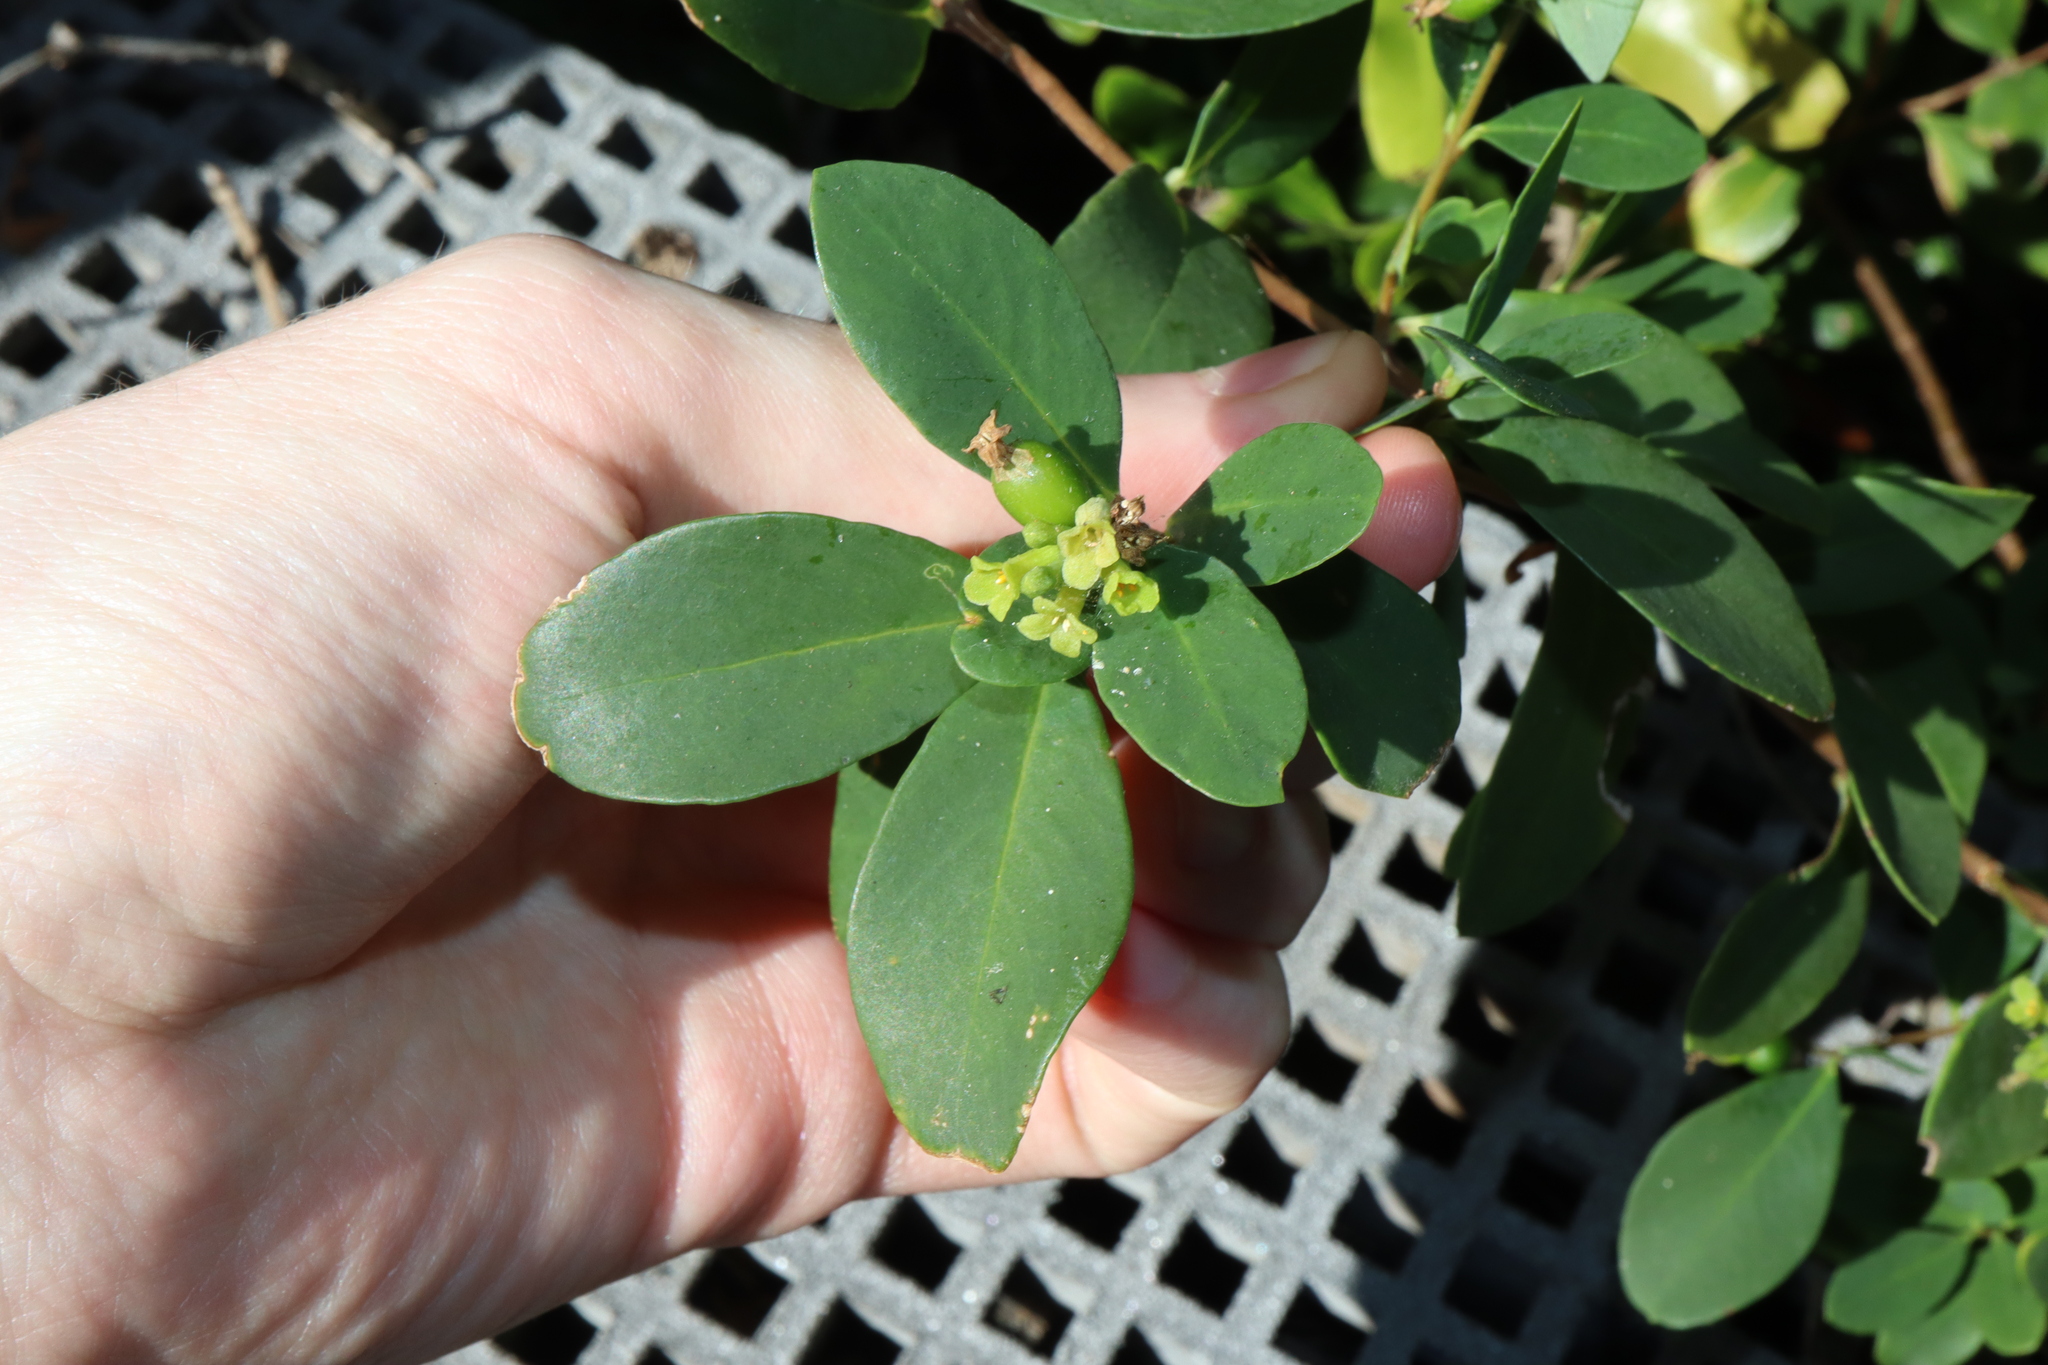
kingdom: Plantae
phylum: Tracheophyta
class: Magnoliopsida
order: Malvales
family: Thymelaeaceae
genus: Wikstroemia
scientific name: Wikstroemia indica
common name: Tiebush
